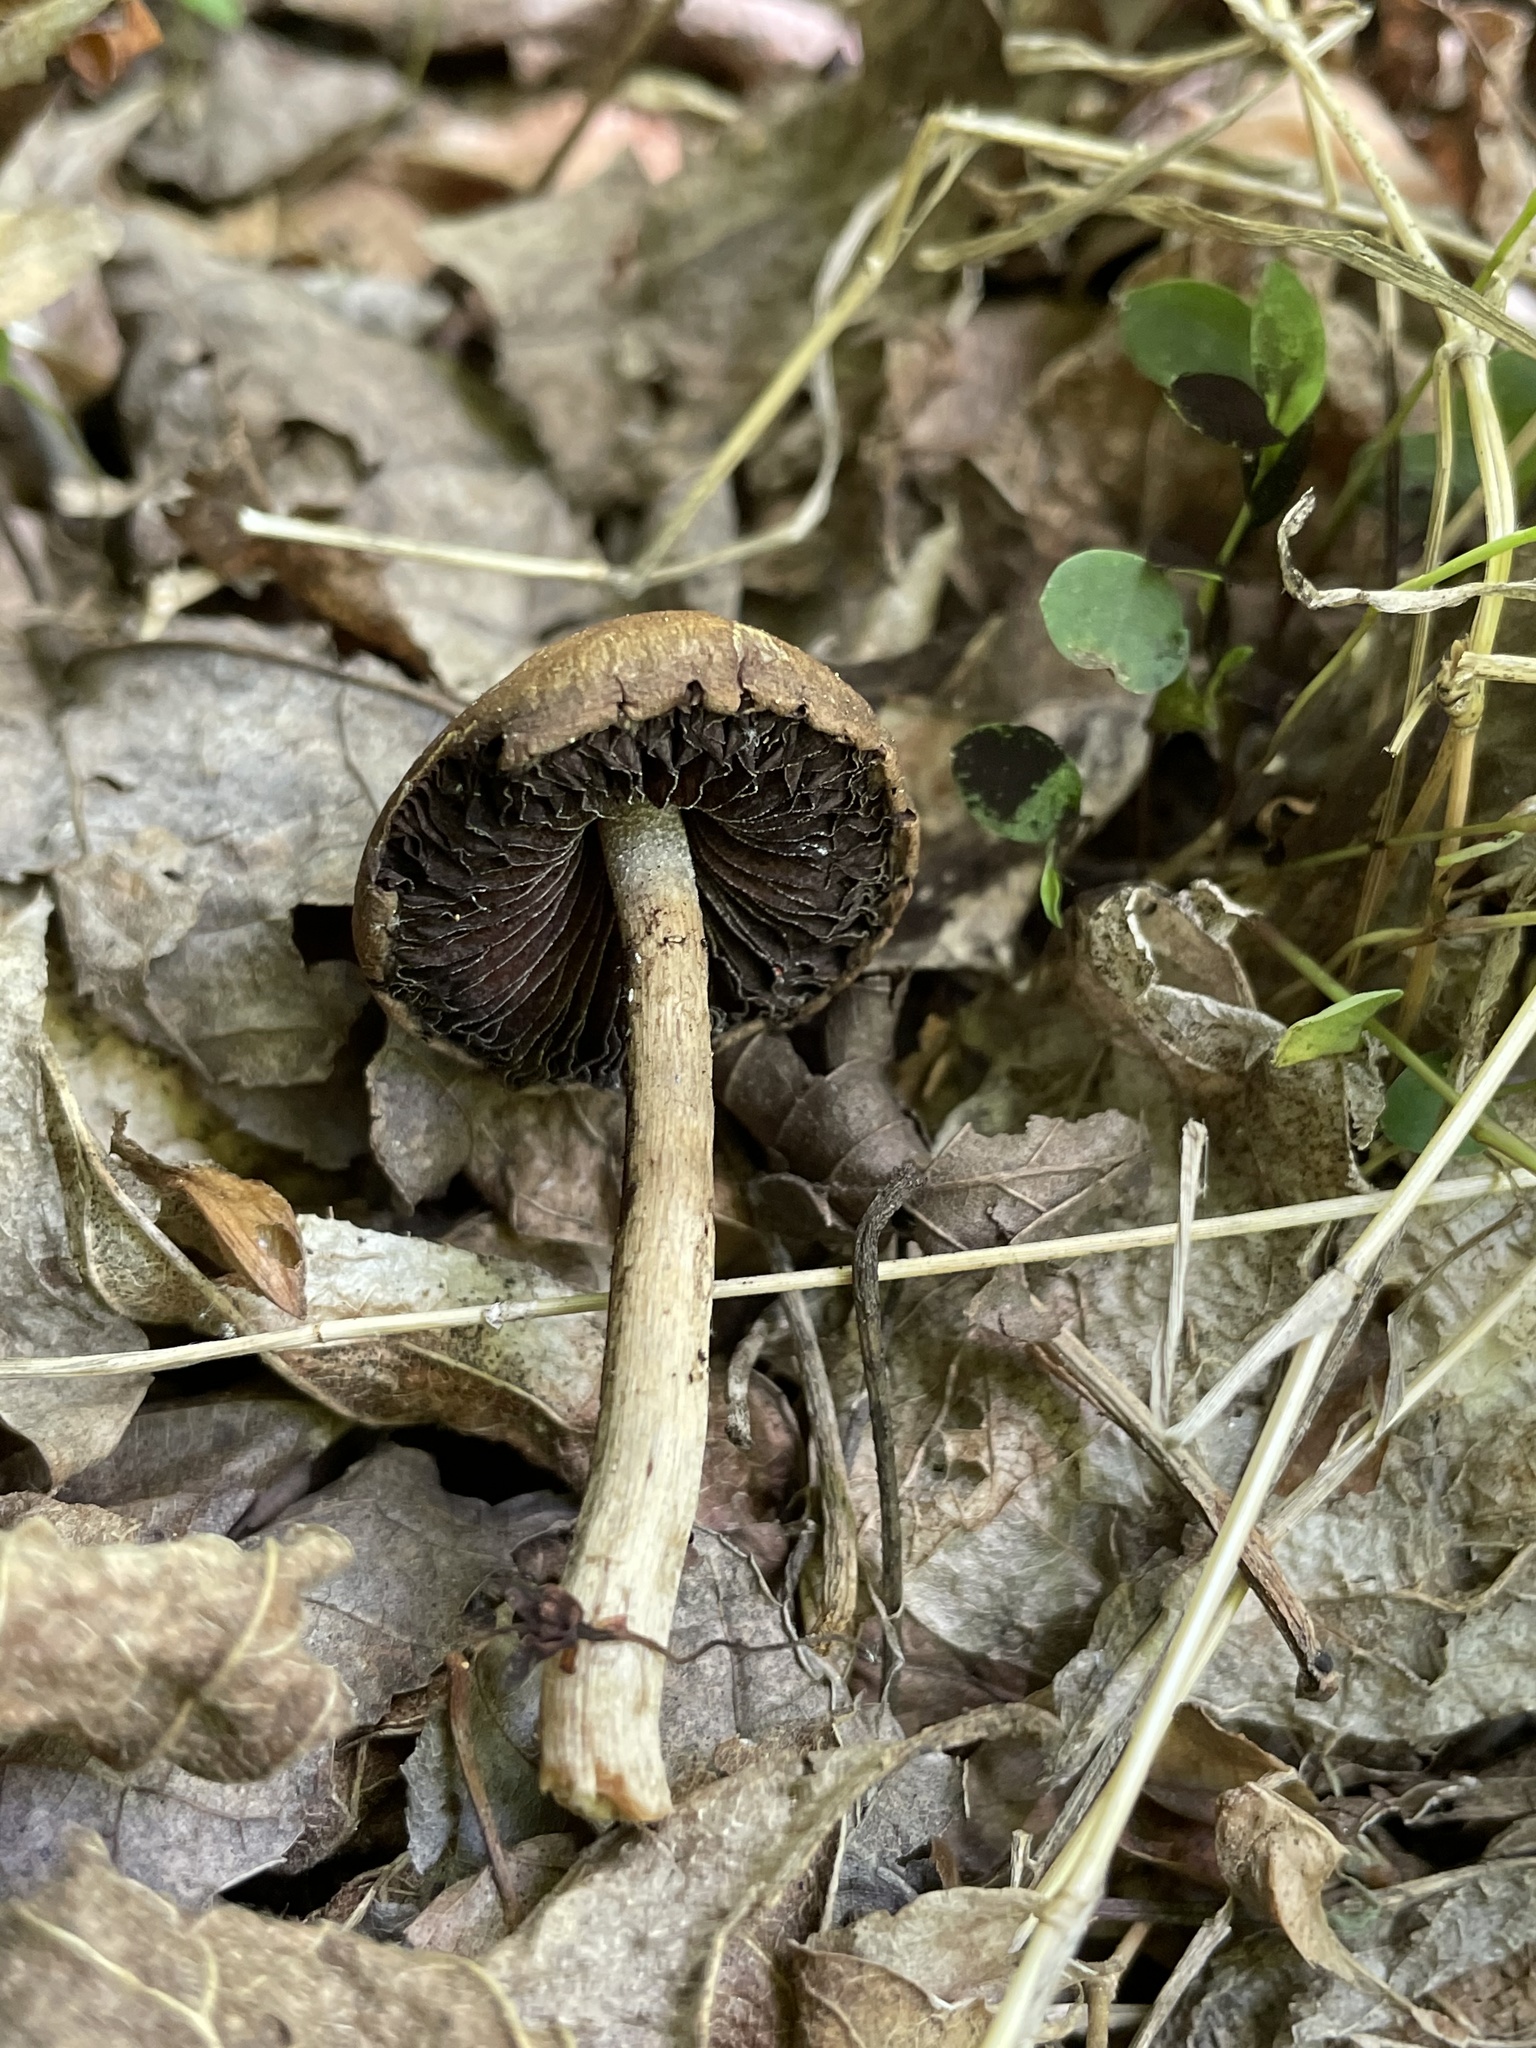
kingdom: Fungi
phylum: Basidiomycota
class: Agaricomycetes
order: Agaricales
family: Psathyrellaceae
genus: Lacrymaria
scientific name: Lacrymaria lacrymabunda
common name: Weeping widow
